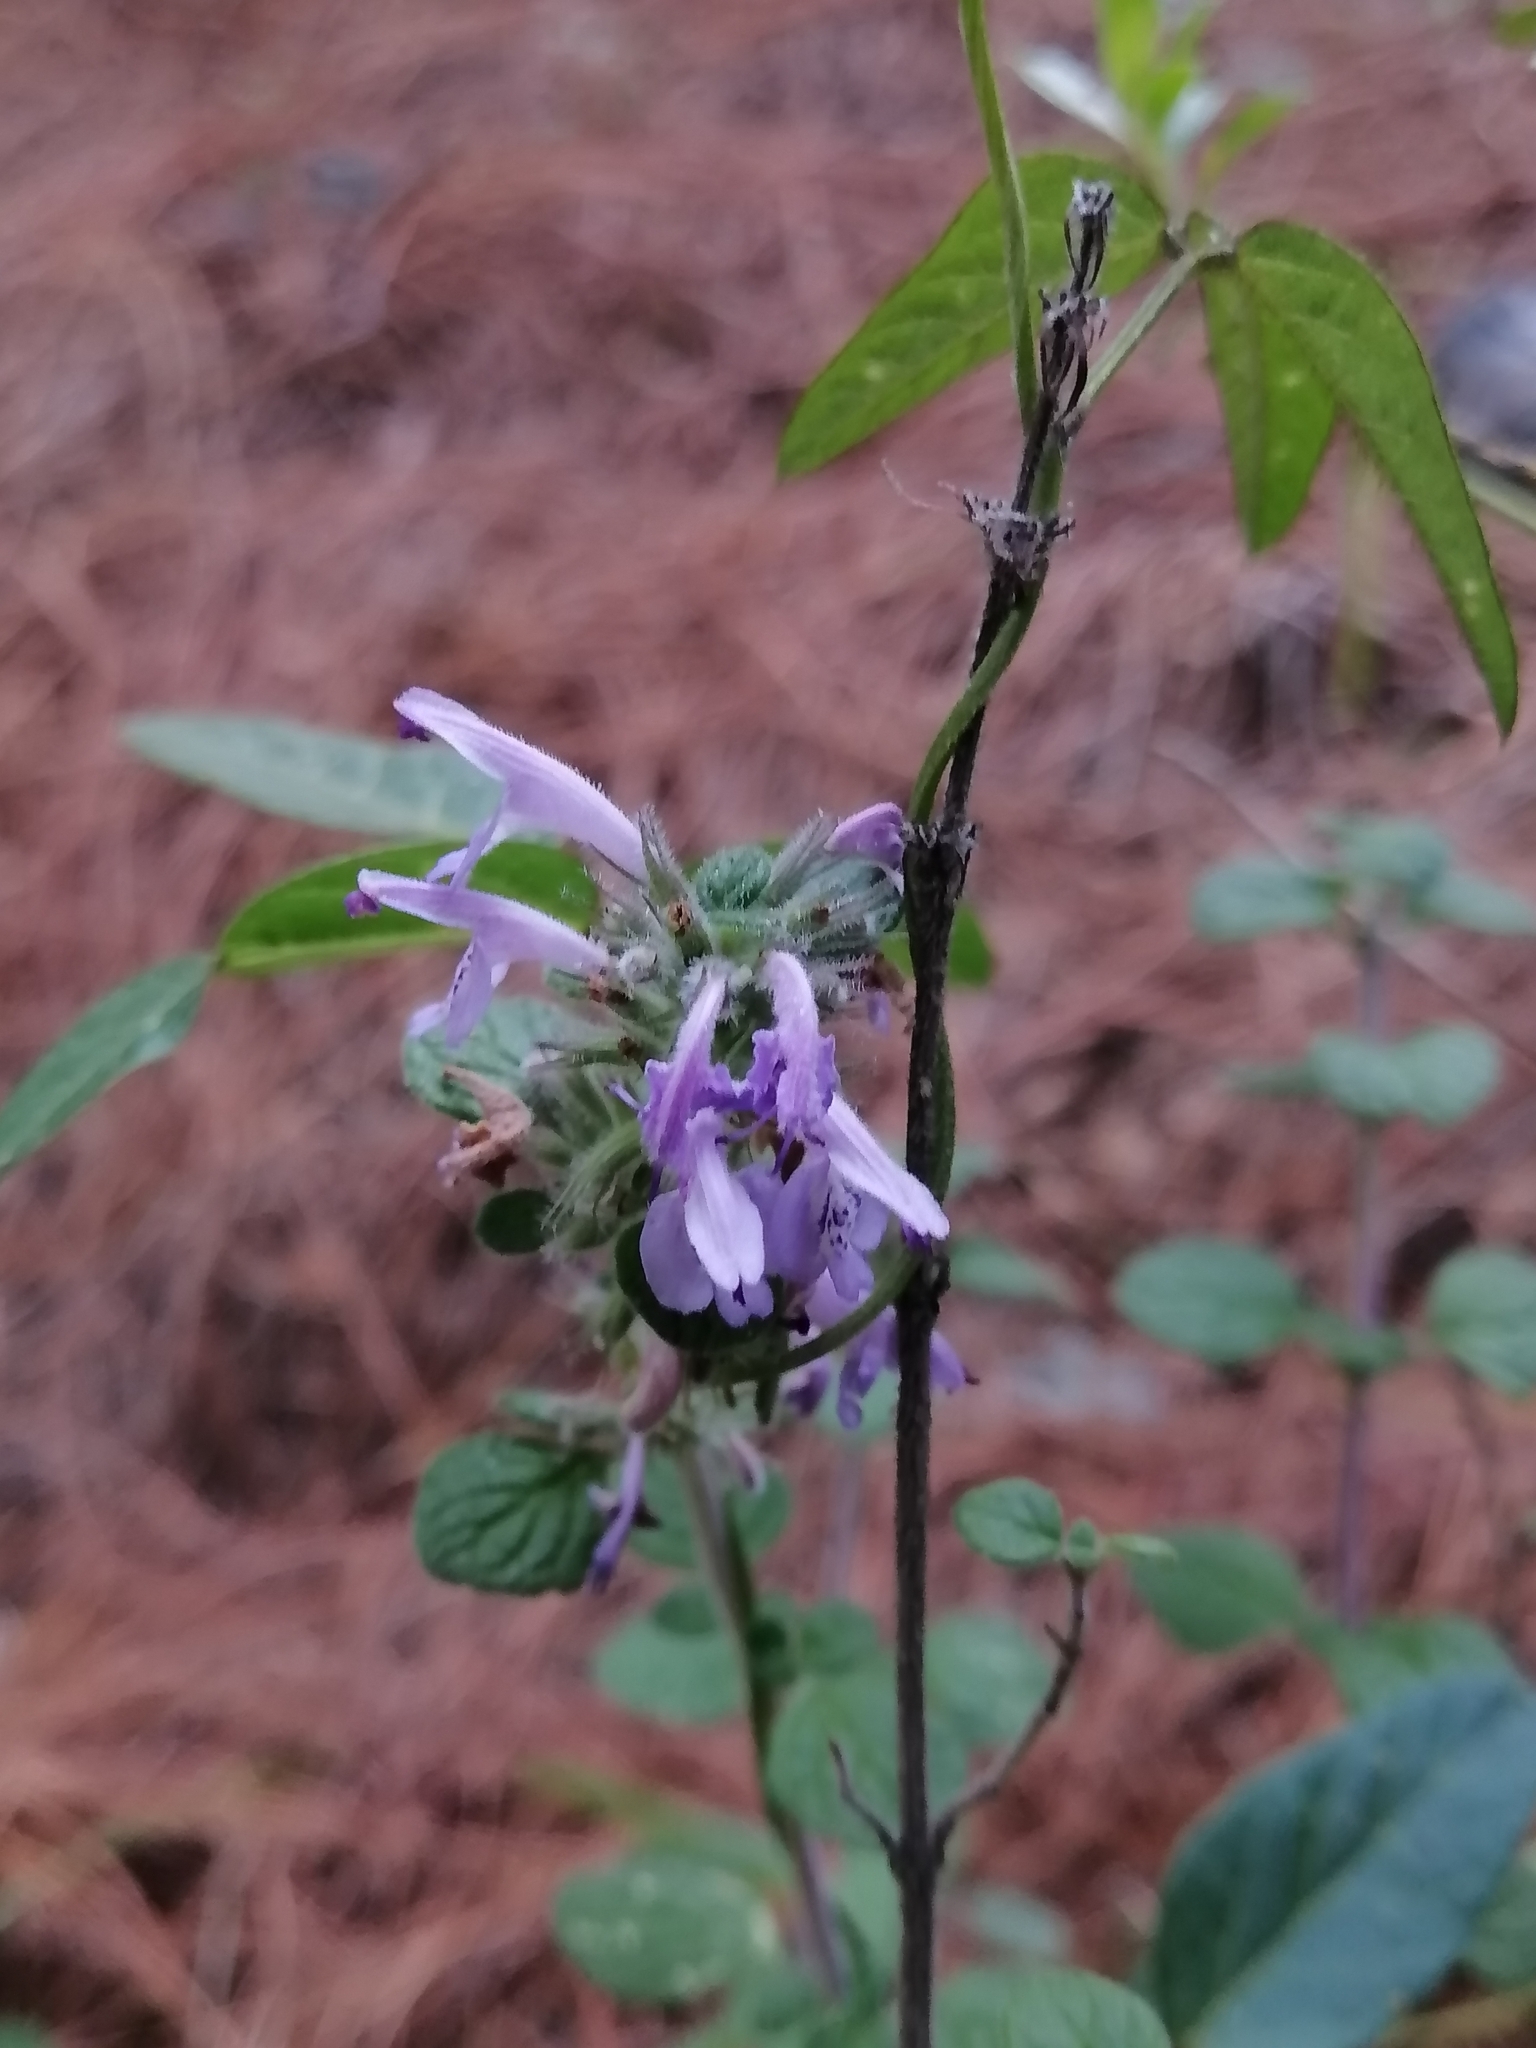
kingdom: Plantae
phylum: Tracheophyta
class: Magnoliopsida
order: Lamiales
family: Lamiaceae
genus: Hedeoma
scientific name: Hedeoma palmeri
